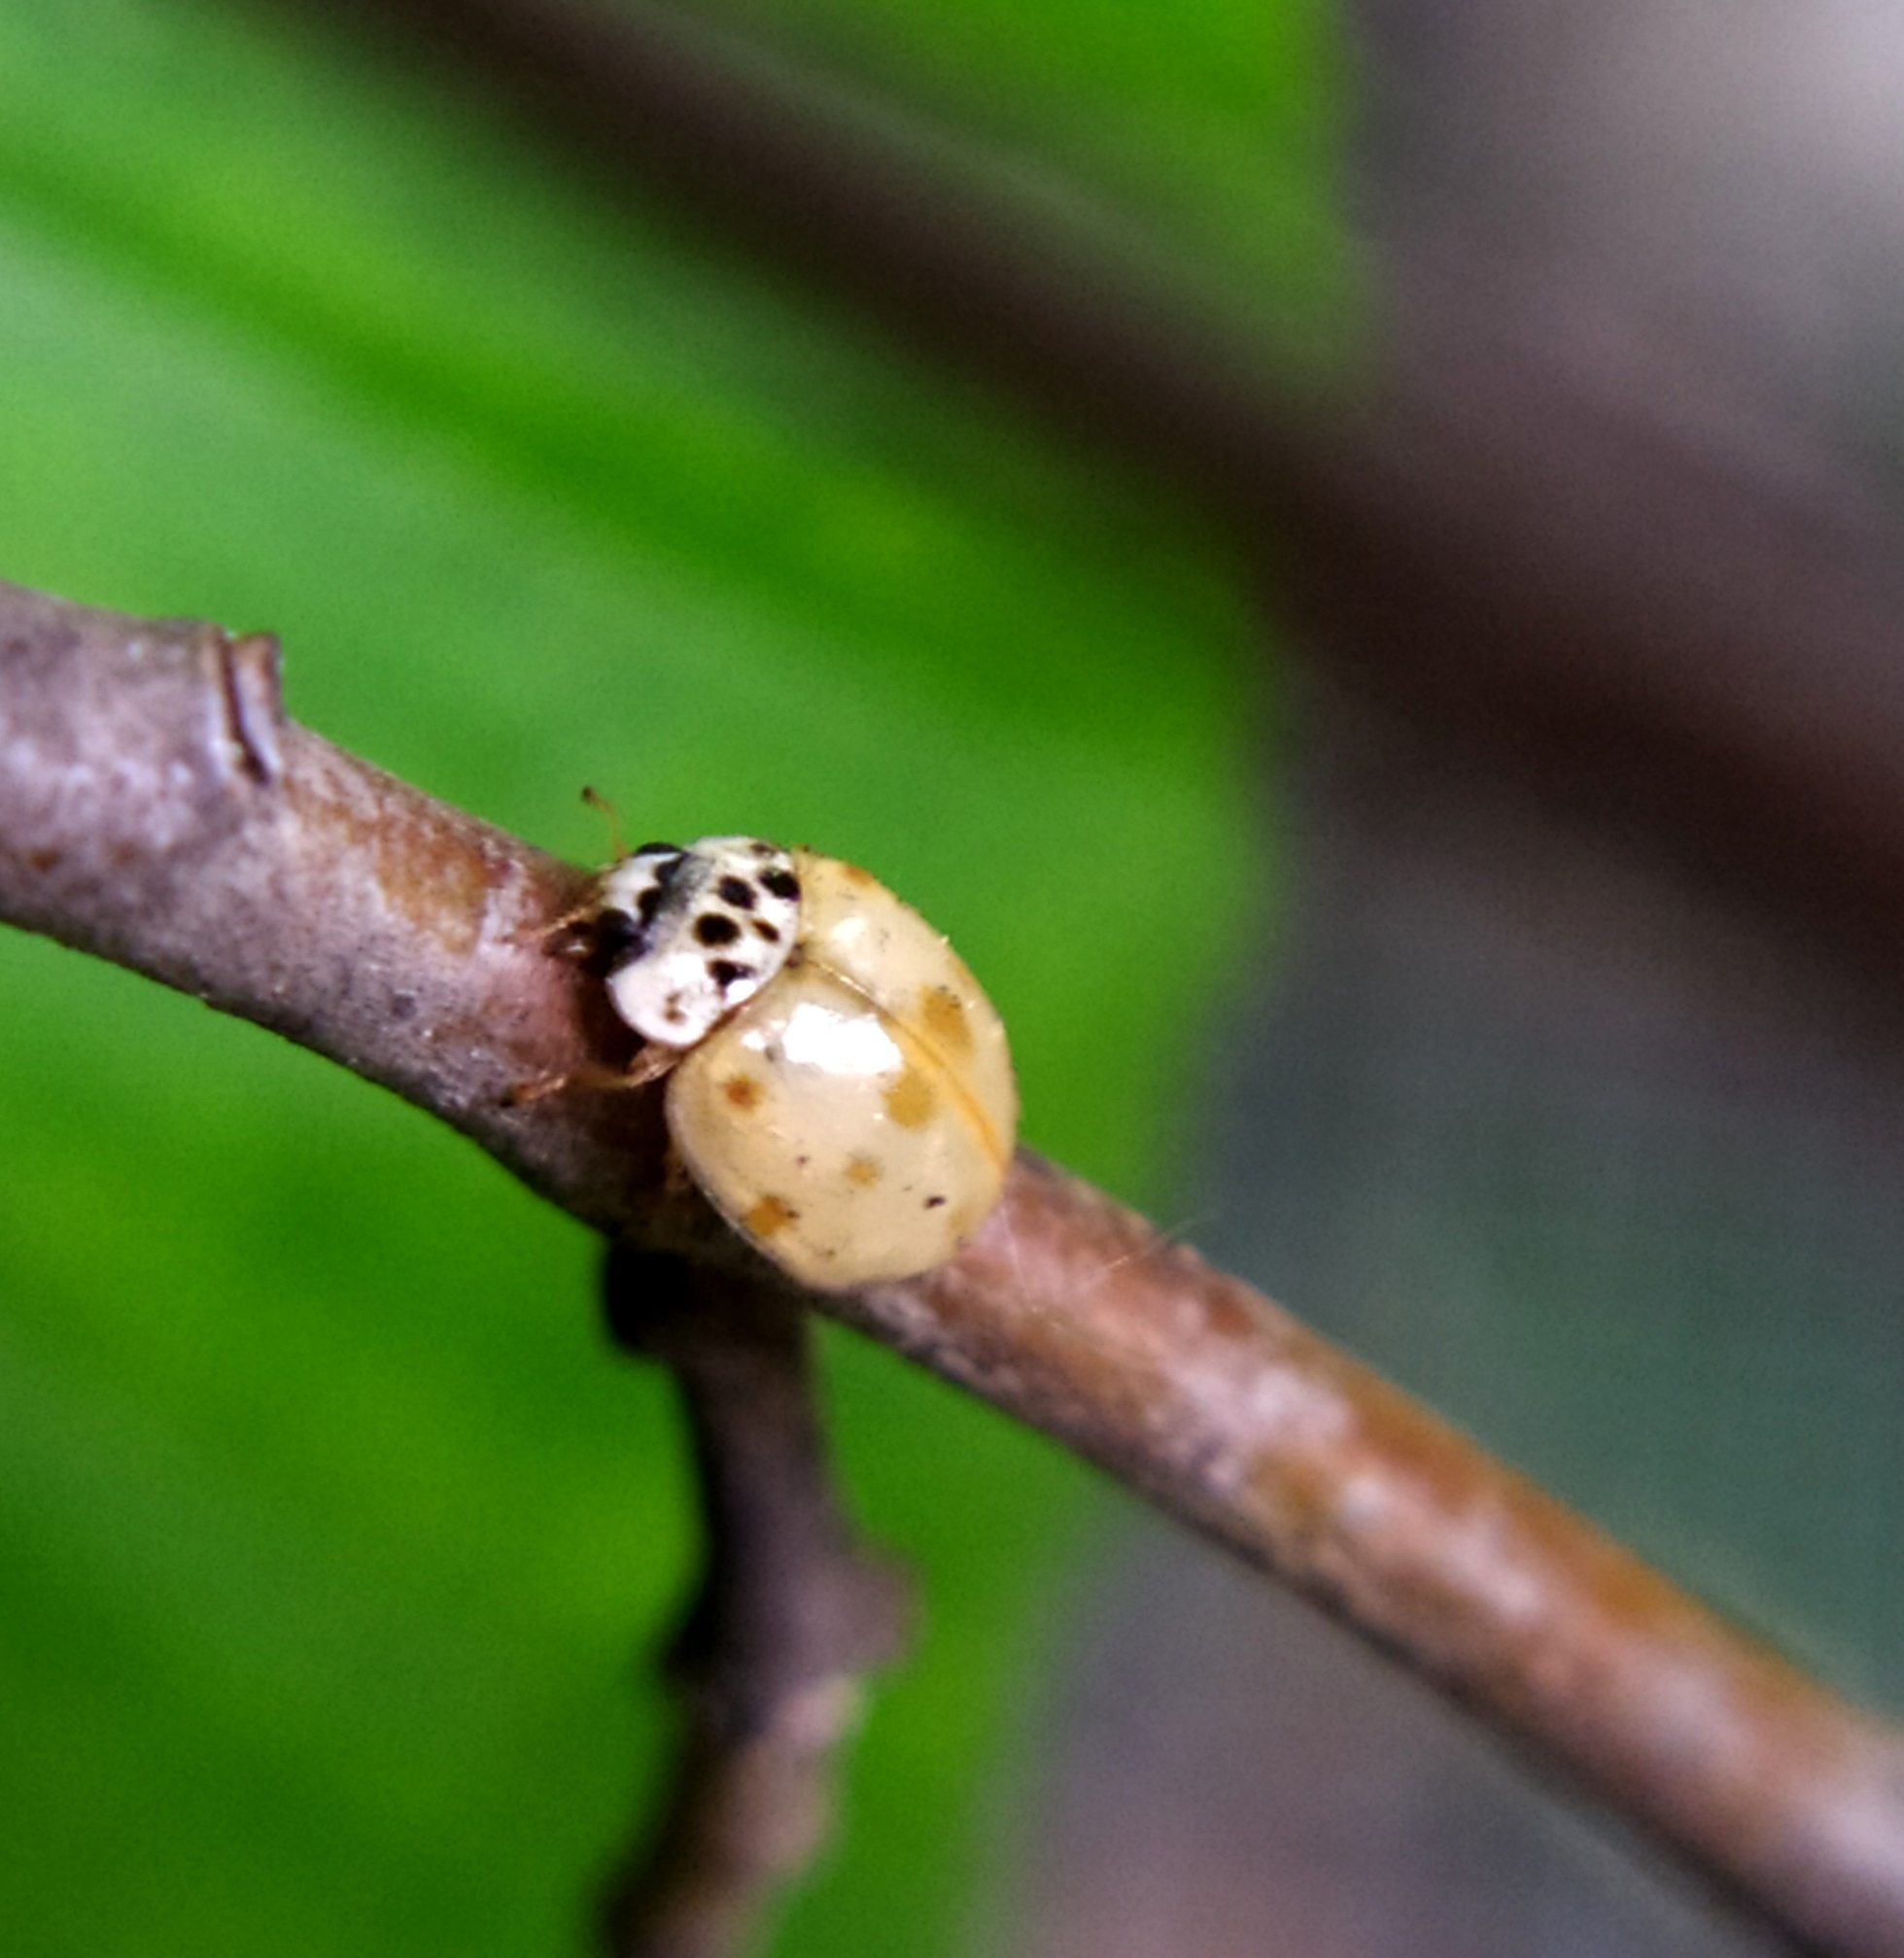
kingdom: Animalia
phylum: Arthropoda
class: Insecta
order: Coleoptera
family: Coccinellidae
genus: Adalia
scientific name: Adalia decempunctata
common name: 10-spot ladybird
